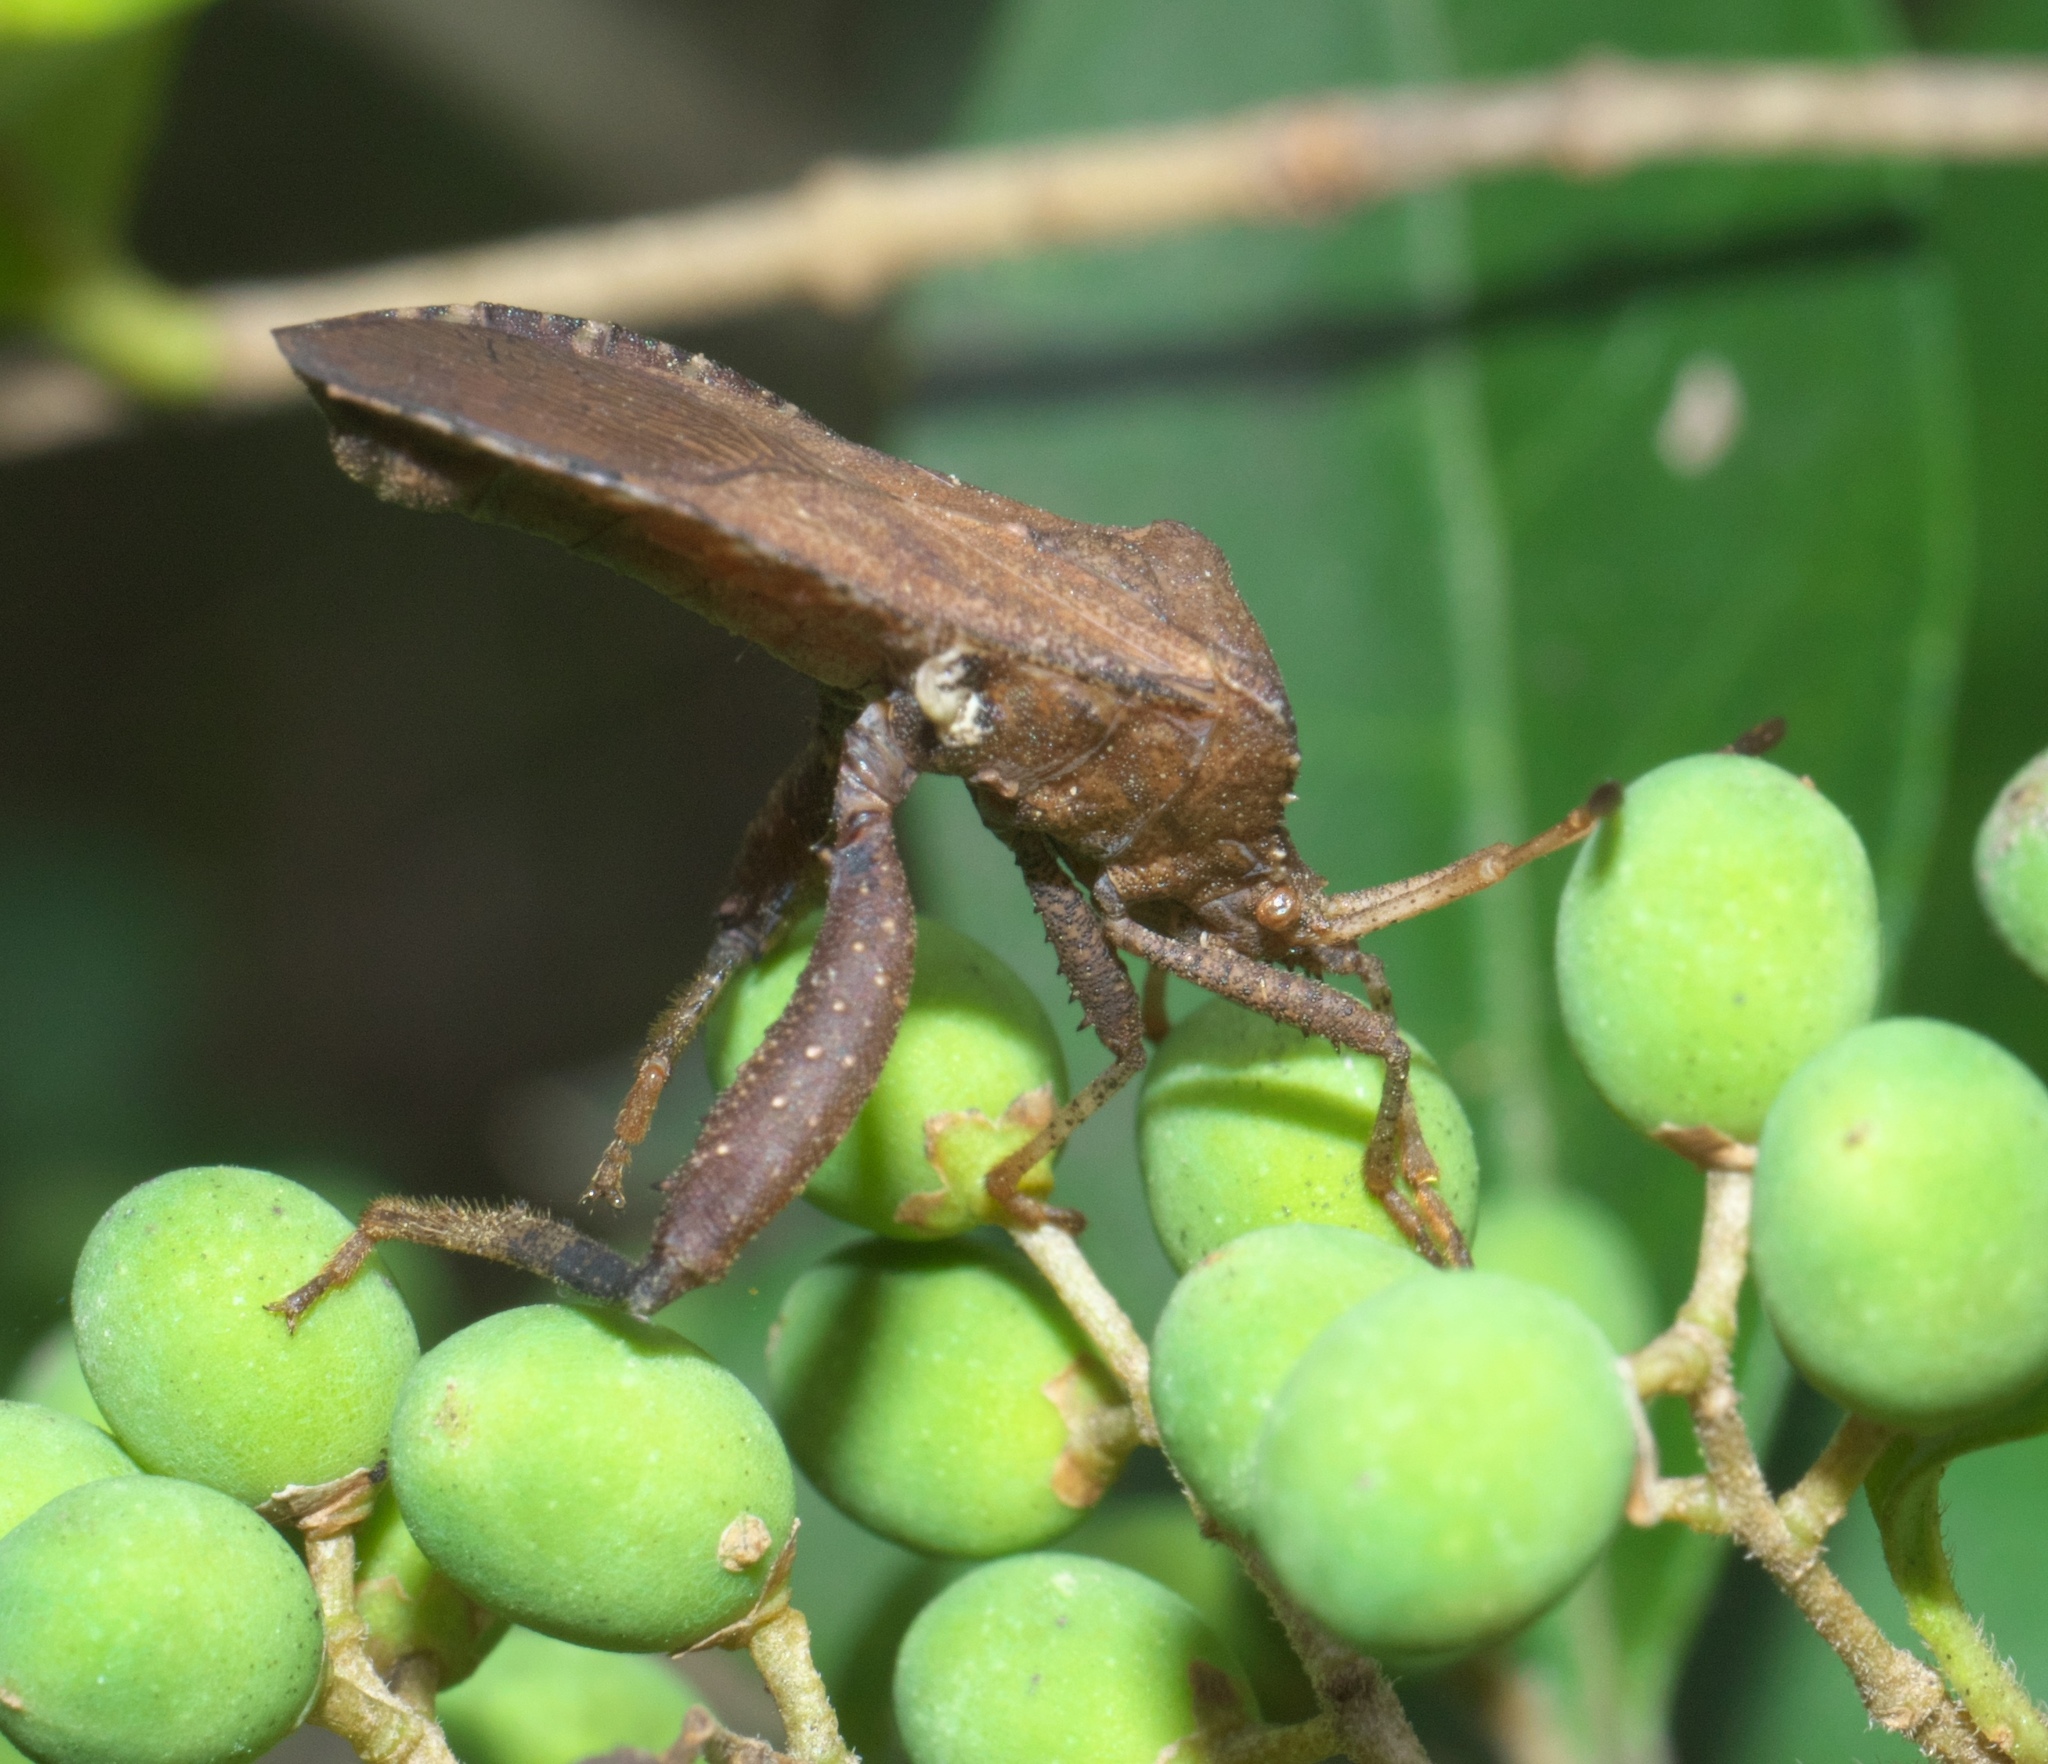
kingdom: Animalia
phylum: Arthropoda
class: Insecta
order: Hemiptera
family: Coreidae
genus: Euthochtha
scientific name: Euthochtha galeator
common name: Helmeted squash bug
